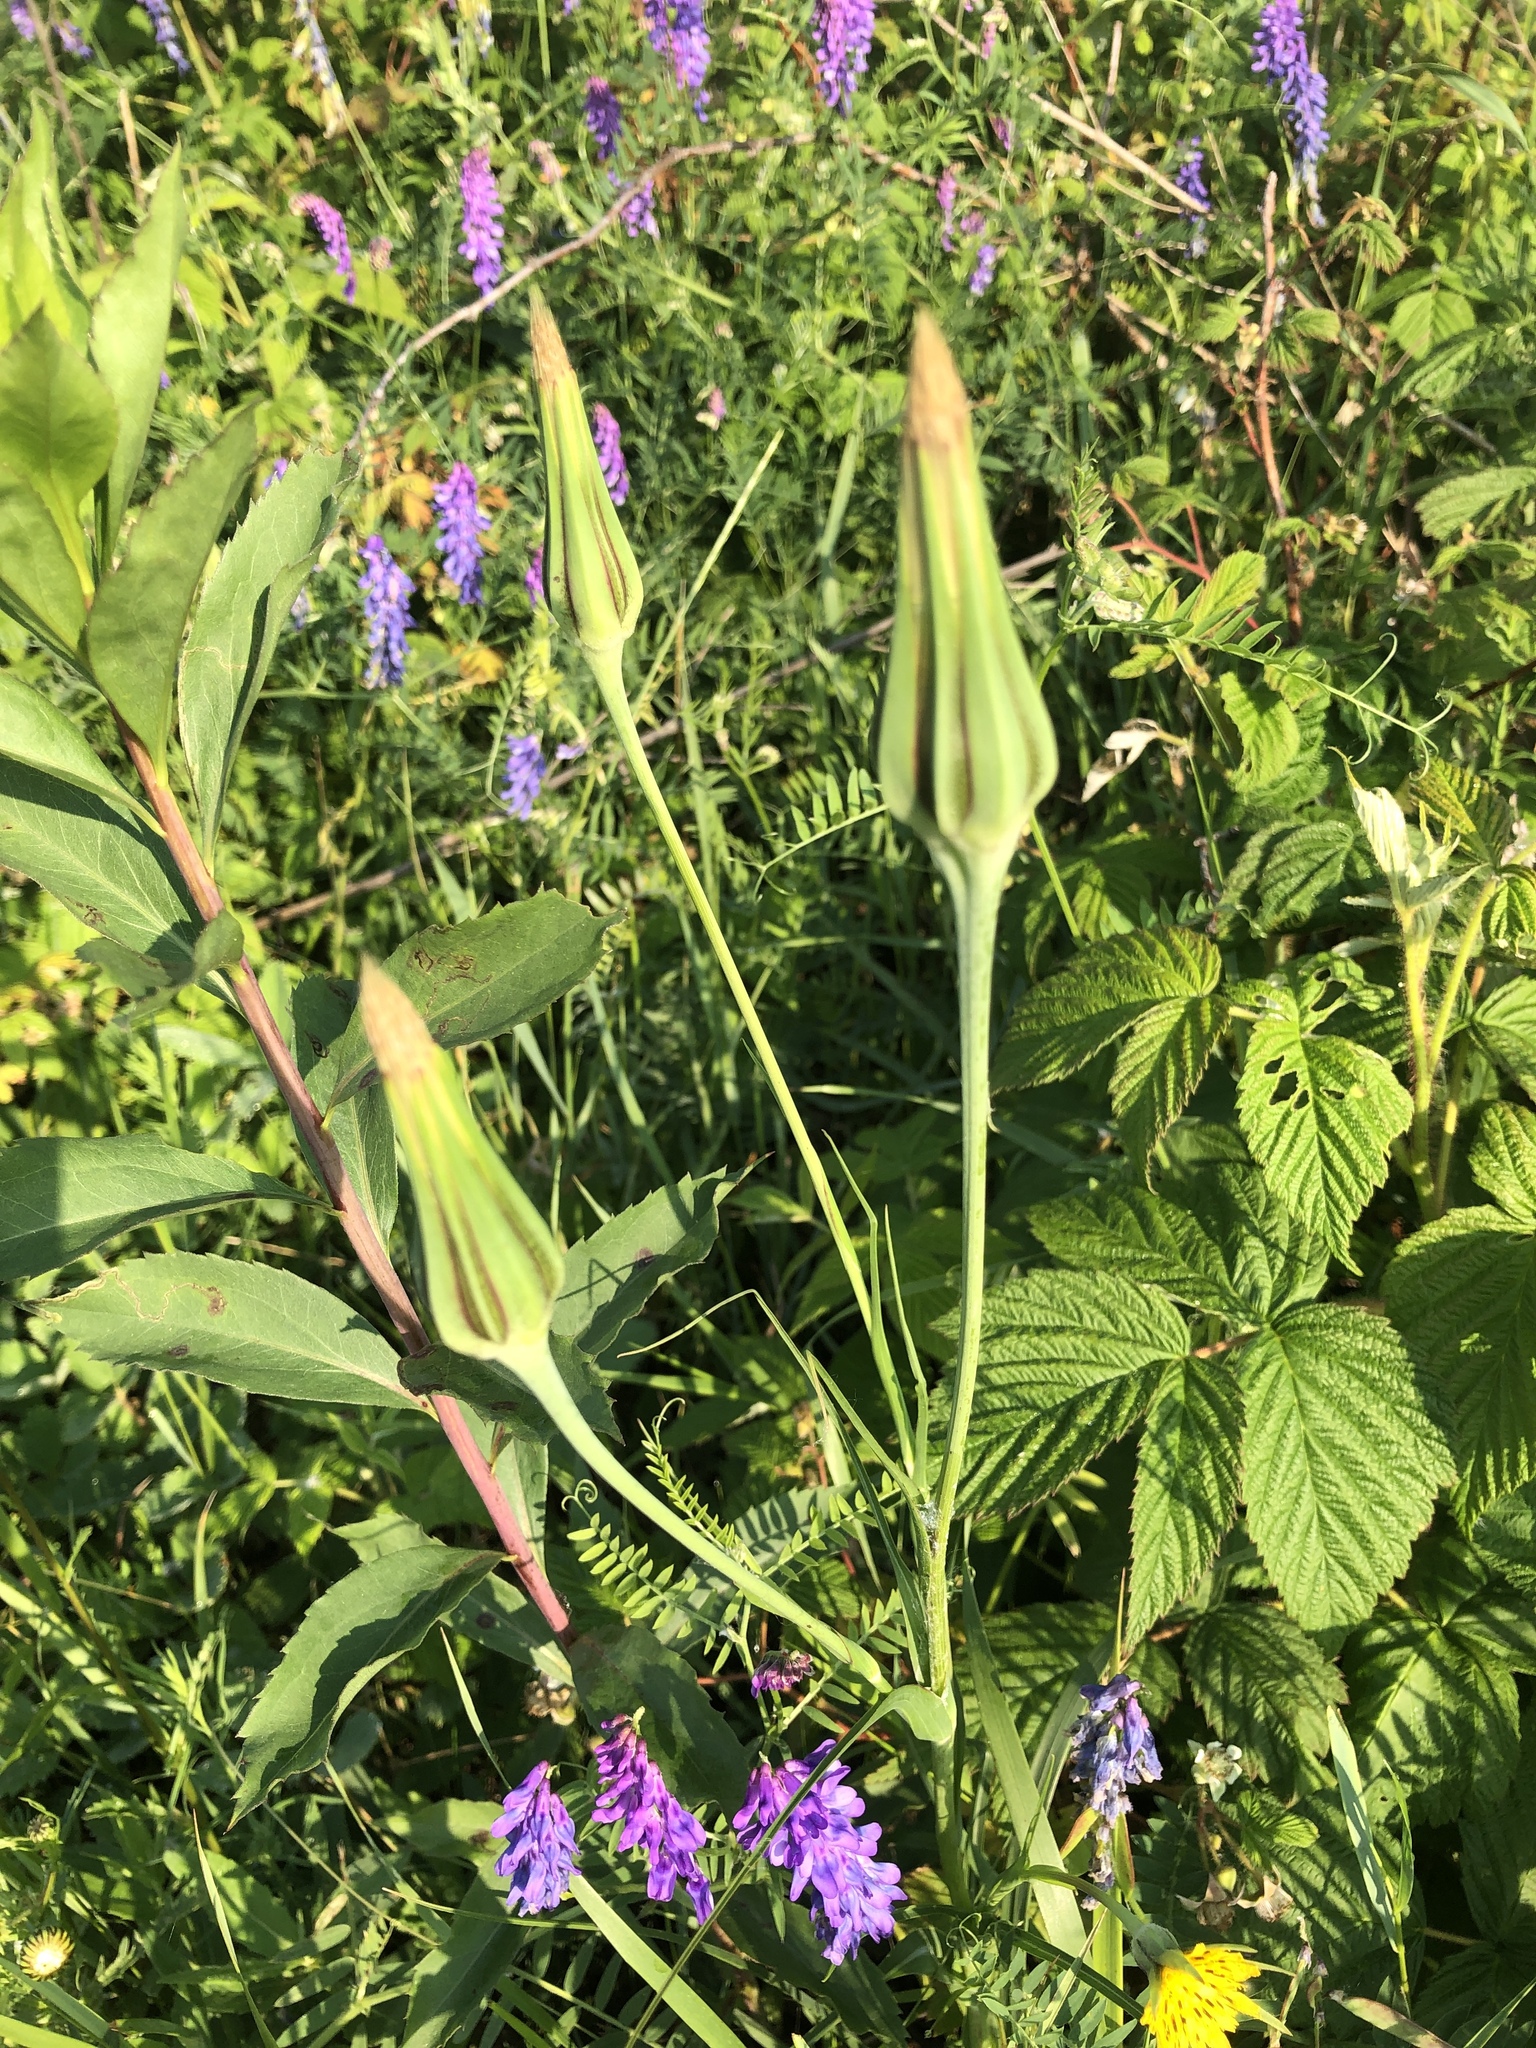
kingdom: Plantae
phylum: Tracheophyta
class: Magnoliopsida
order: Asterales
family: Asteraceae
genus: Tragopogon
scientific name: Tragopogon dubius
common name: Yellow salsify
